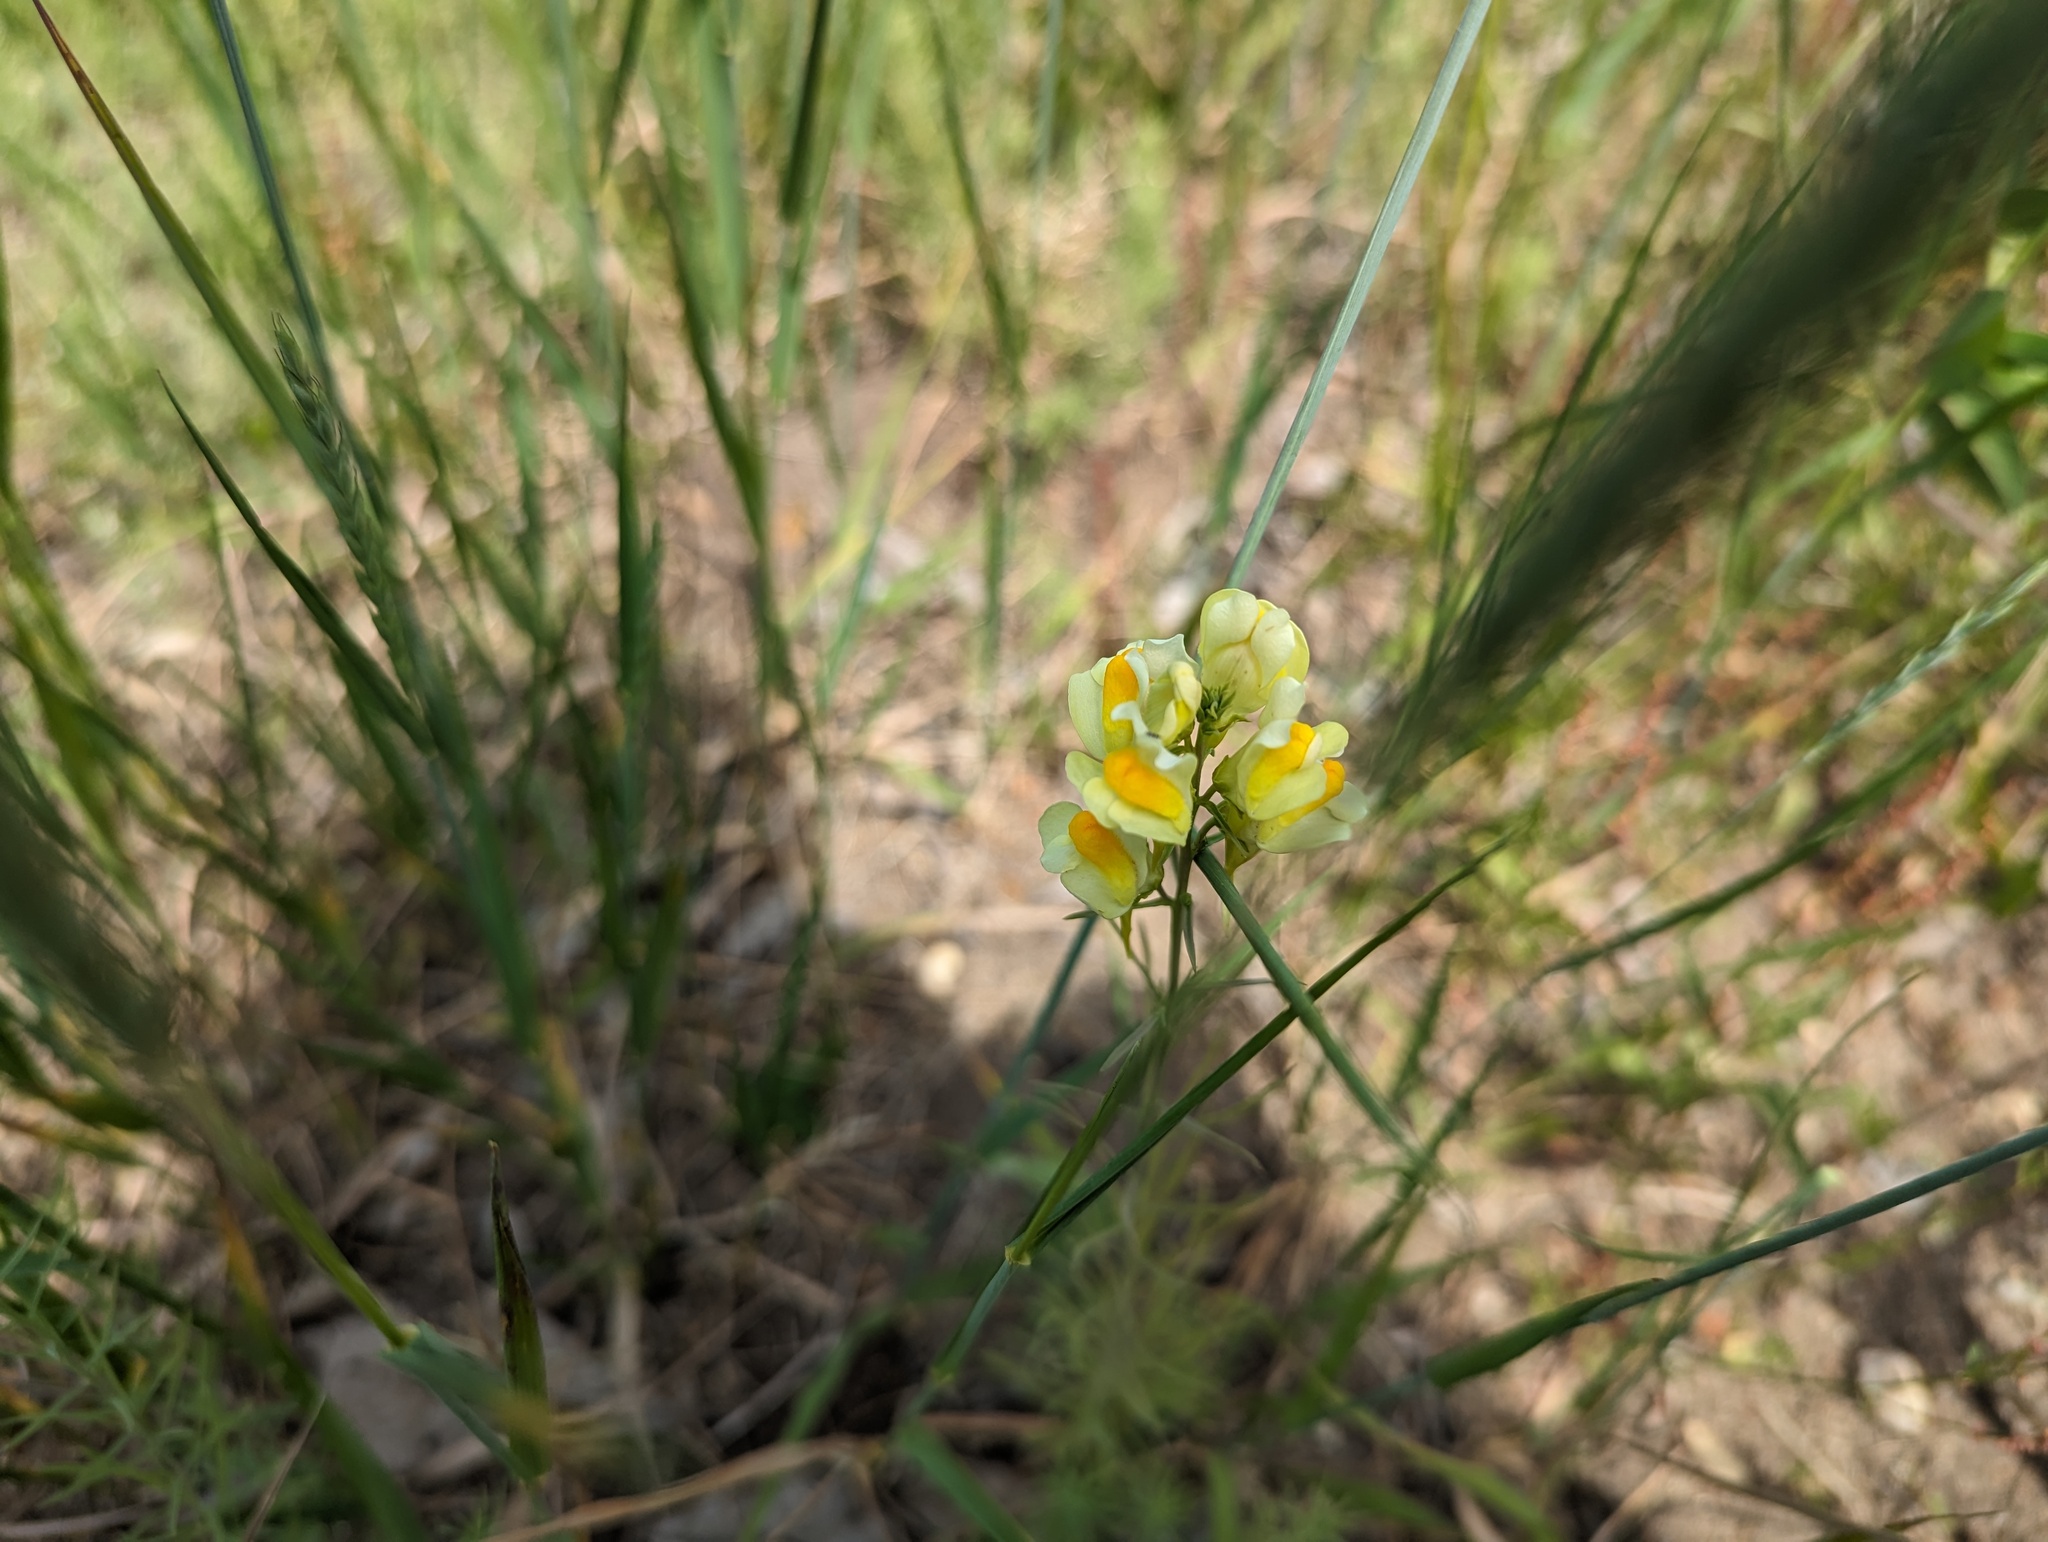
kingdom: Plantae
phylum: Tracheophyta
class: Magnoliopsida
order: Lamiales
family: Plantaginaceae
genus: Linaria
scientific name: Linaria vulgaris
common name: Butter and eggs
